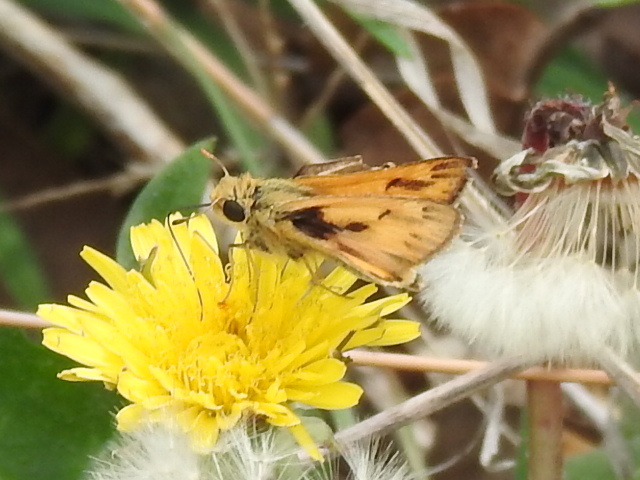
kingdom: Animalia
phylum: Arthropoda
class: Insecta
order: Lepidoptera
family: Hesperiidae
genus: Hylephila
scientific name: Hylephila phyleus
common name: Fiery skipper
